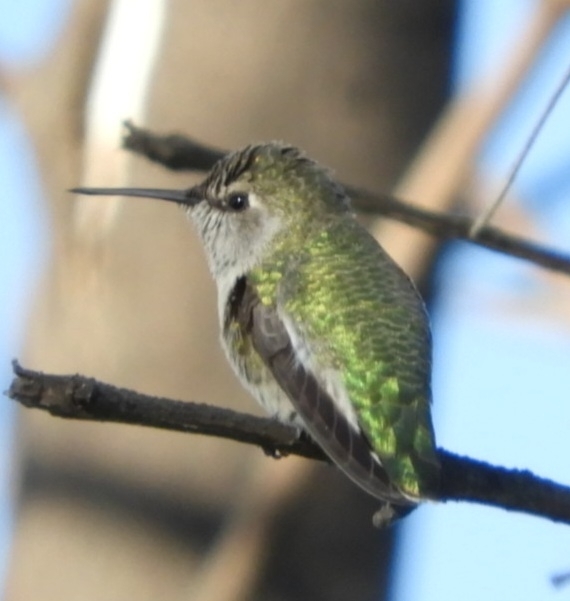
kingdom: Animalia
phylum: Chordata
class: Aves
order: Apodiformes
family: Trochilidae
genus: Calypte
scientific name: Calypte anna
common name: Anna's hummingbird
